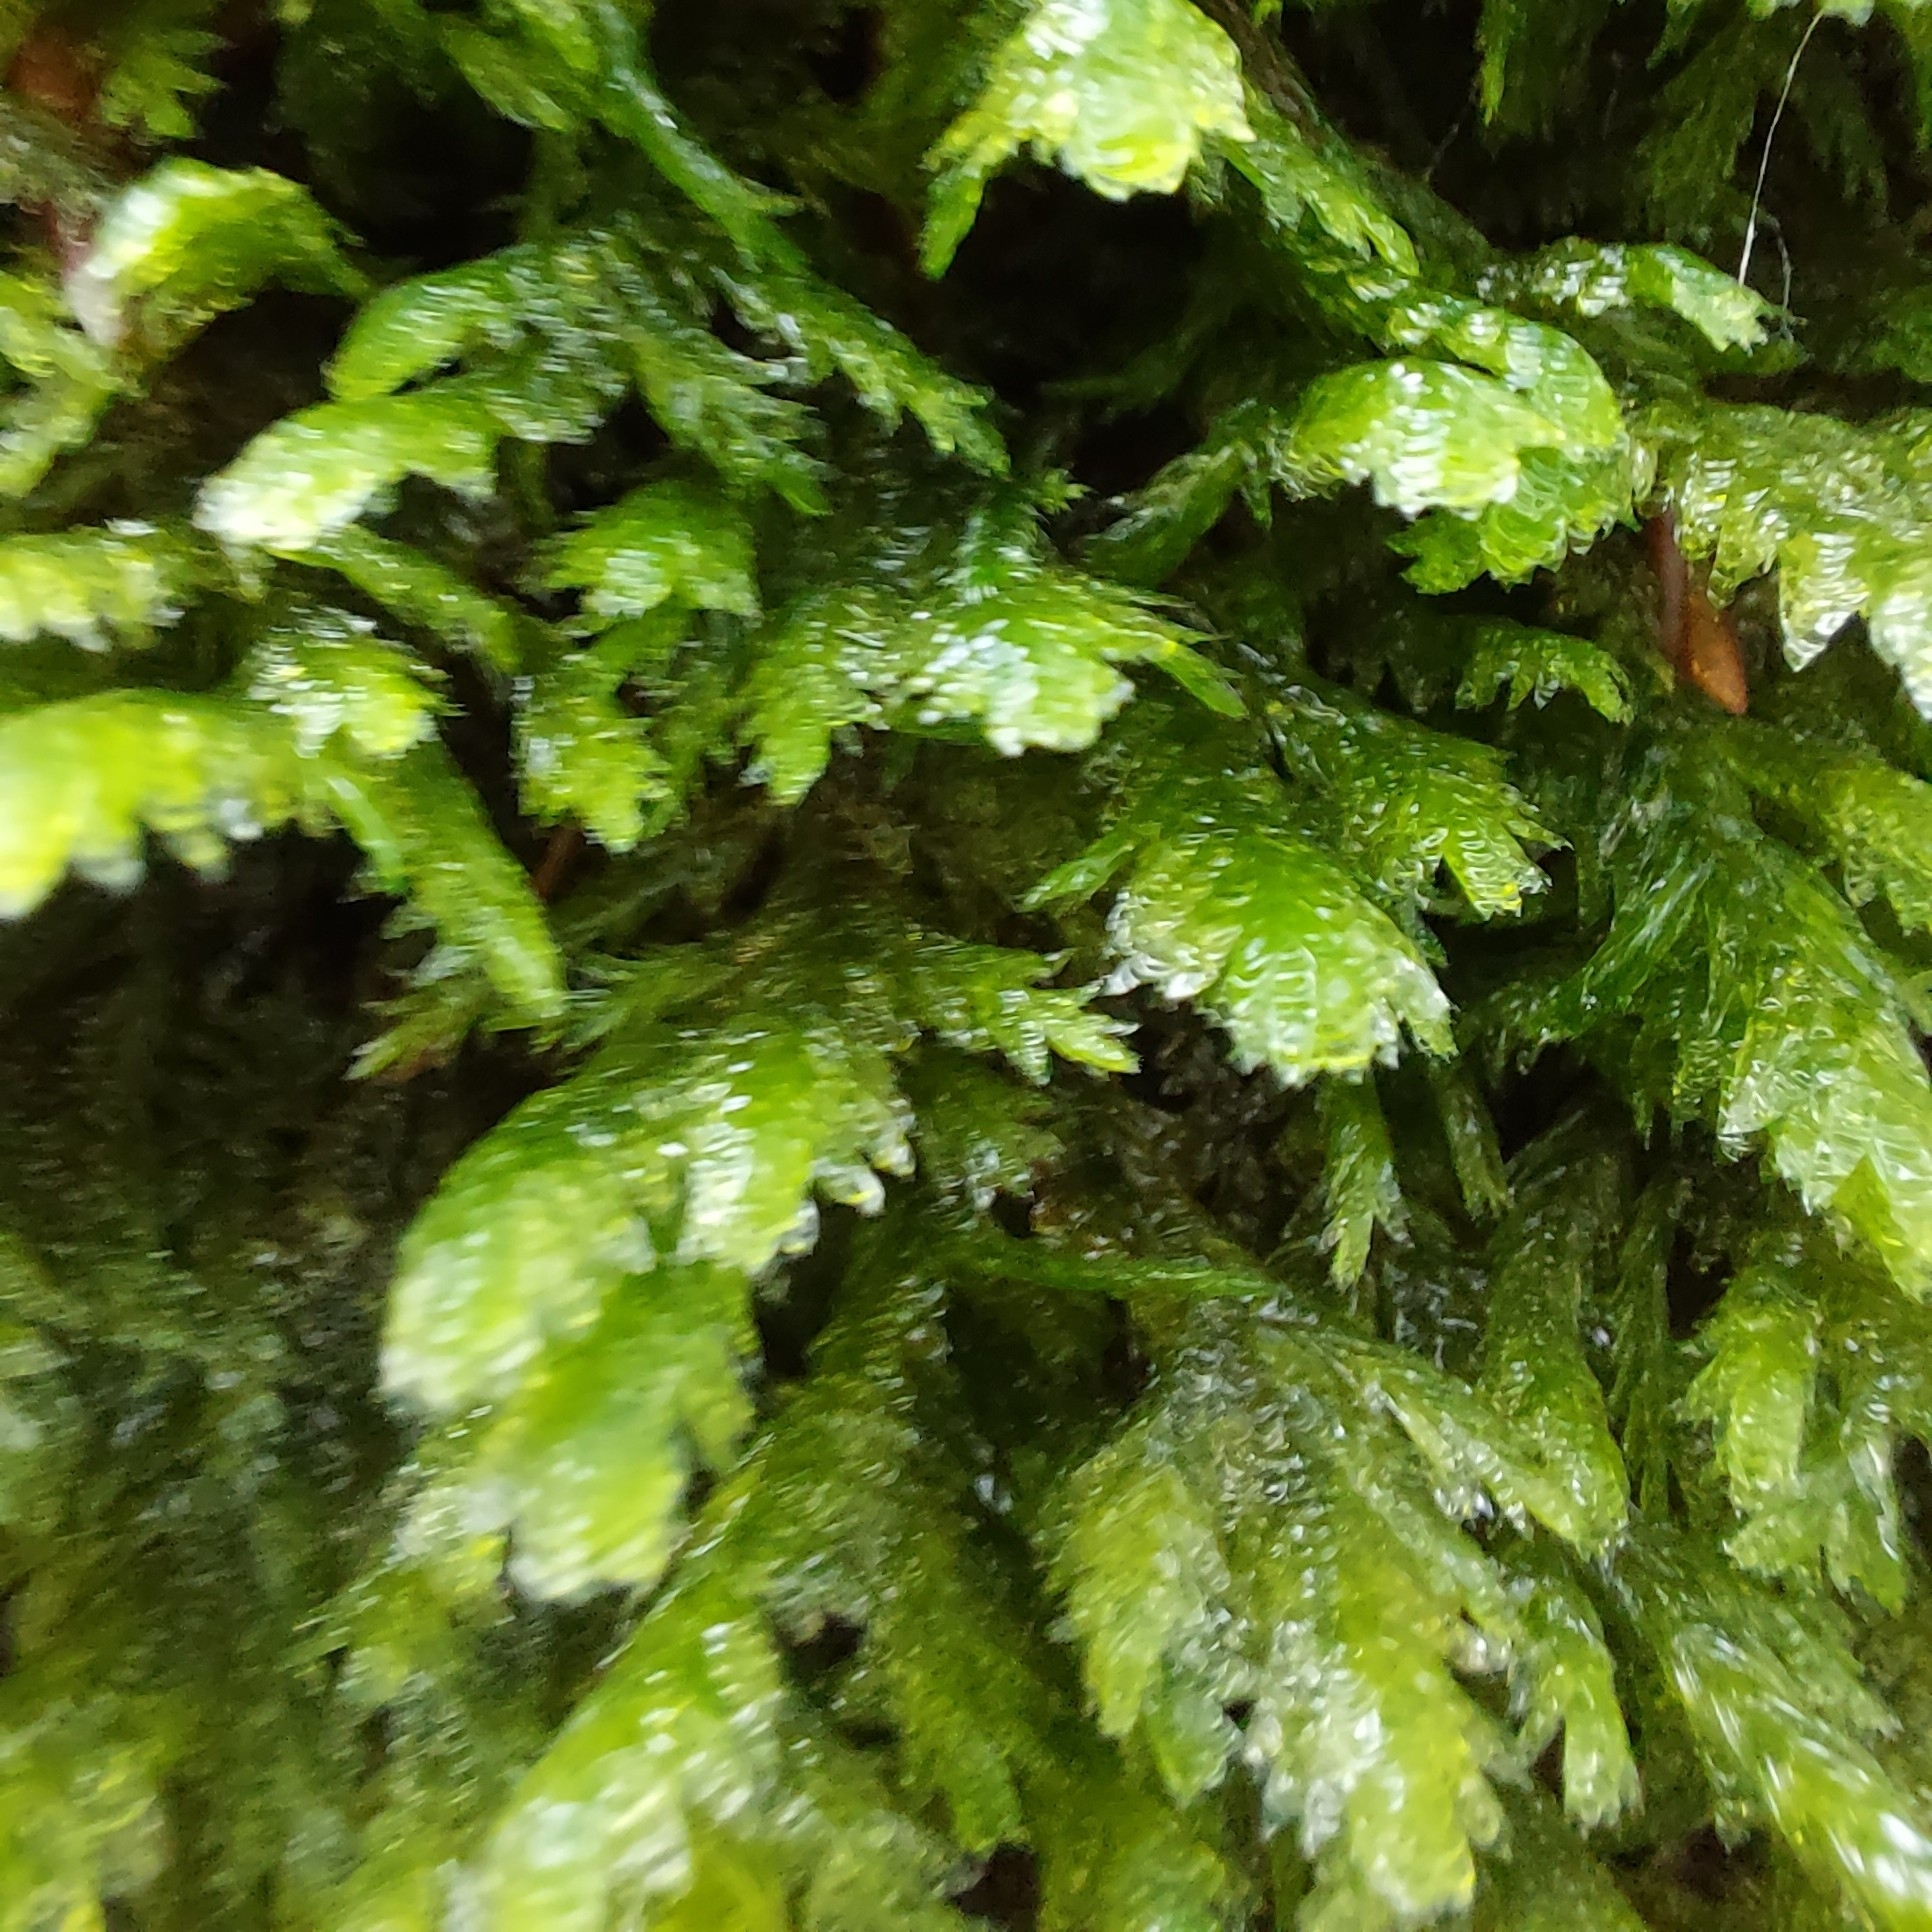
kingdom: Plantae
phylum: Bryophyta
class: Bryopsida
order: Hypnales
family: Neckeraceae
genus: Exsertotheca
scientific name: Exsertotheca crispa
